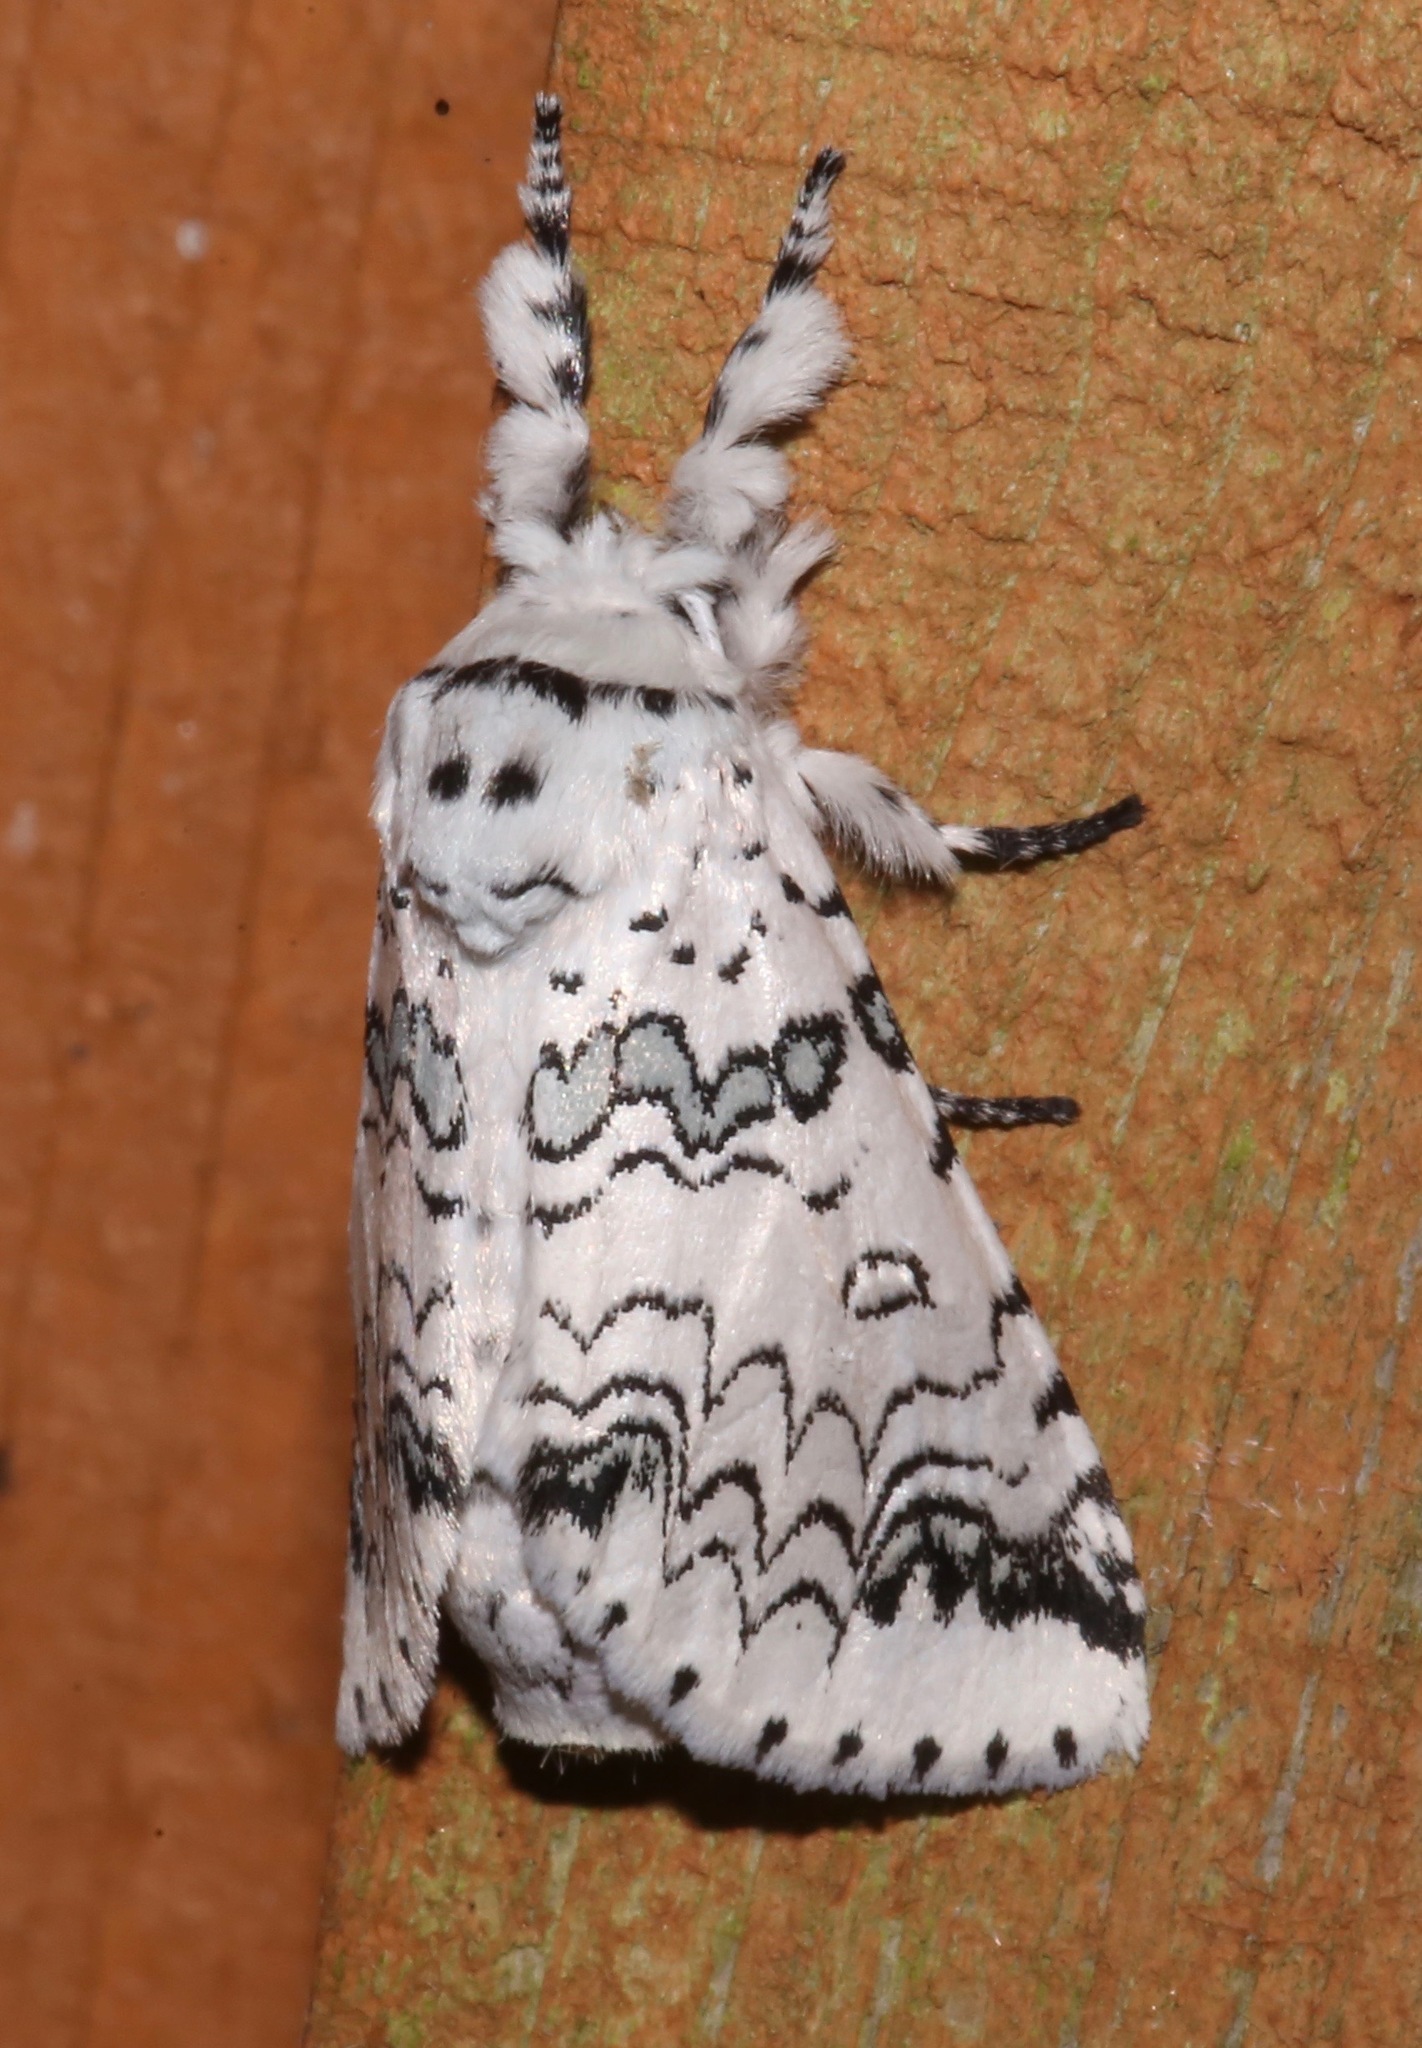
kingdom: Animalia
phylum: Arthropoda
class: Insecta
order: Lepidoptera
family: Notodontidae
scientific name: Notodontidae
